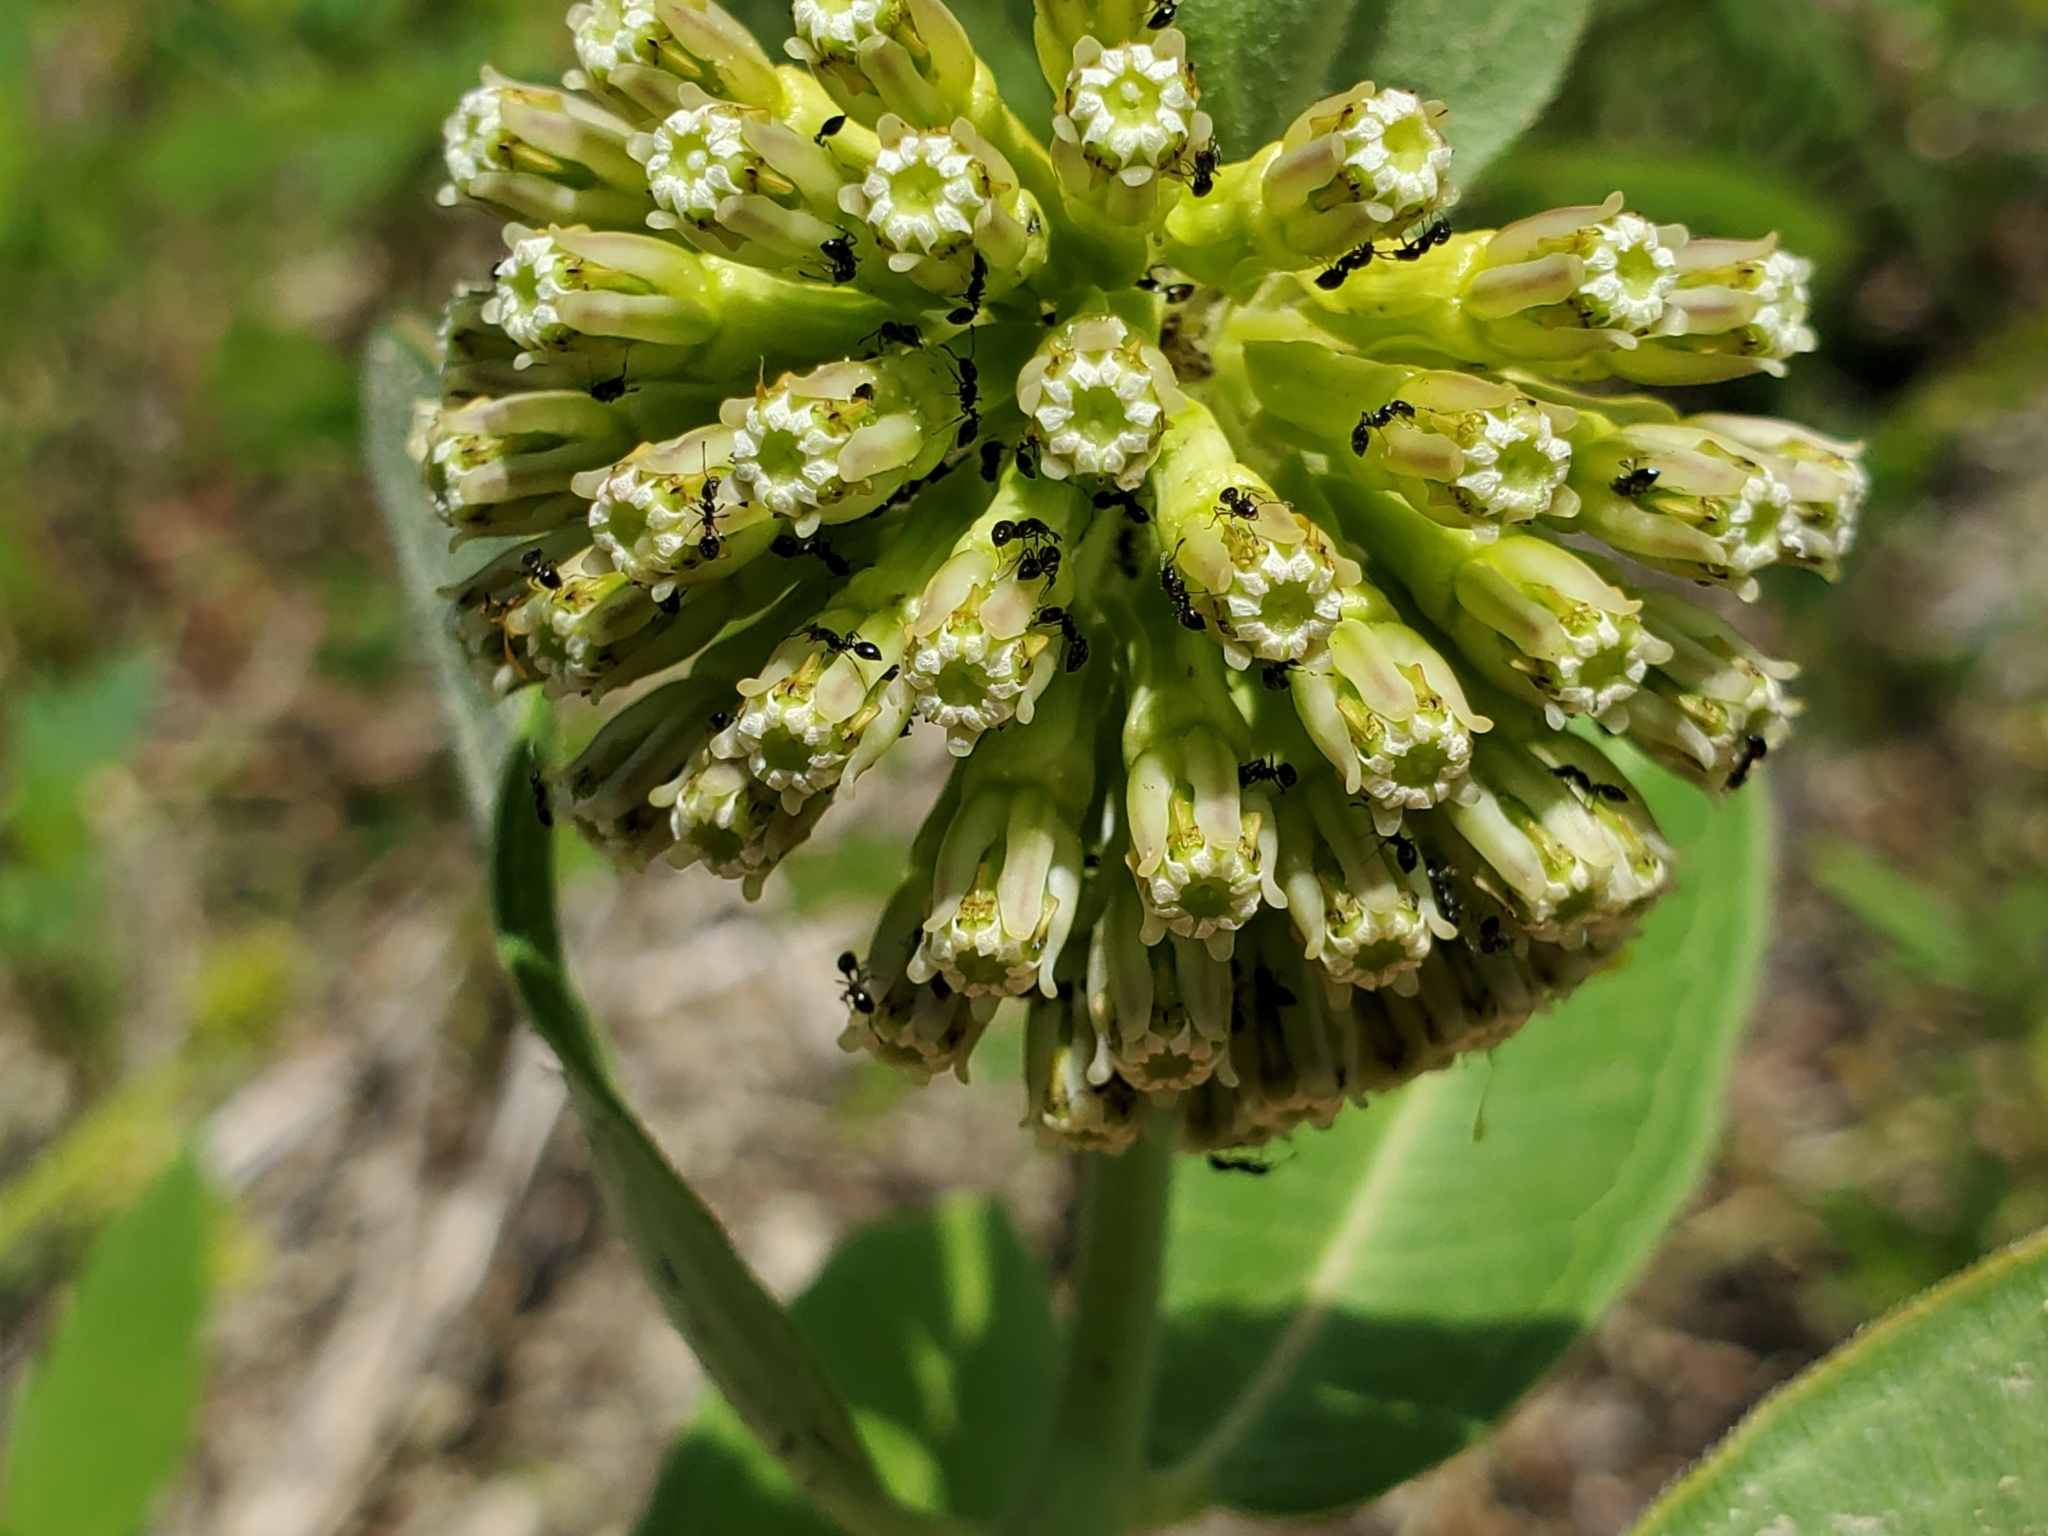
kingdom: Plantae
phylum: Tracheophyta
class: Magnoliopsida
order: Gentianales
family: Apocynaceae
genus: Asclepias
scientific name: Asclepias viridiflora
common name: Green comet milkweed
